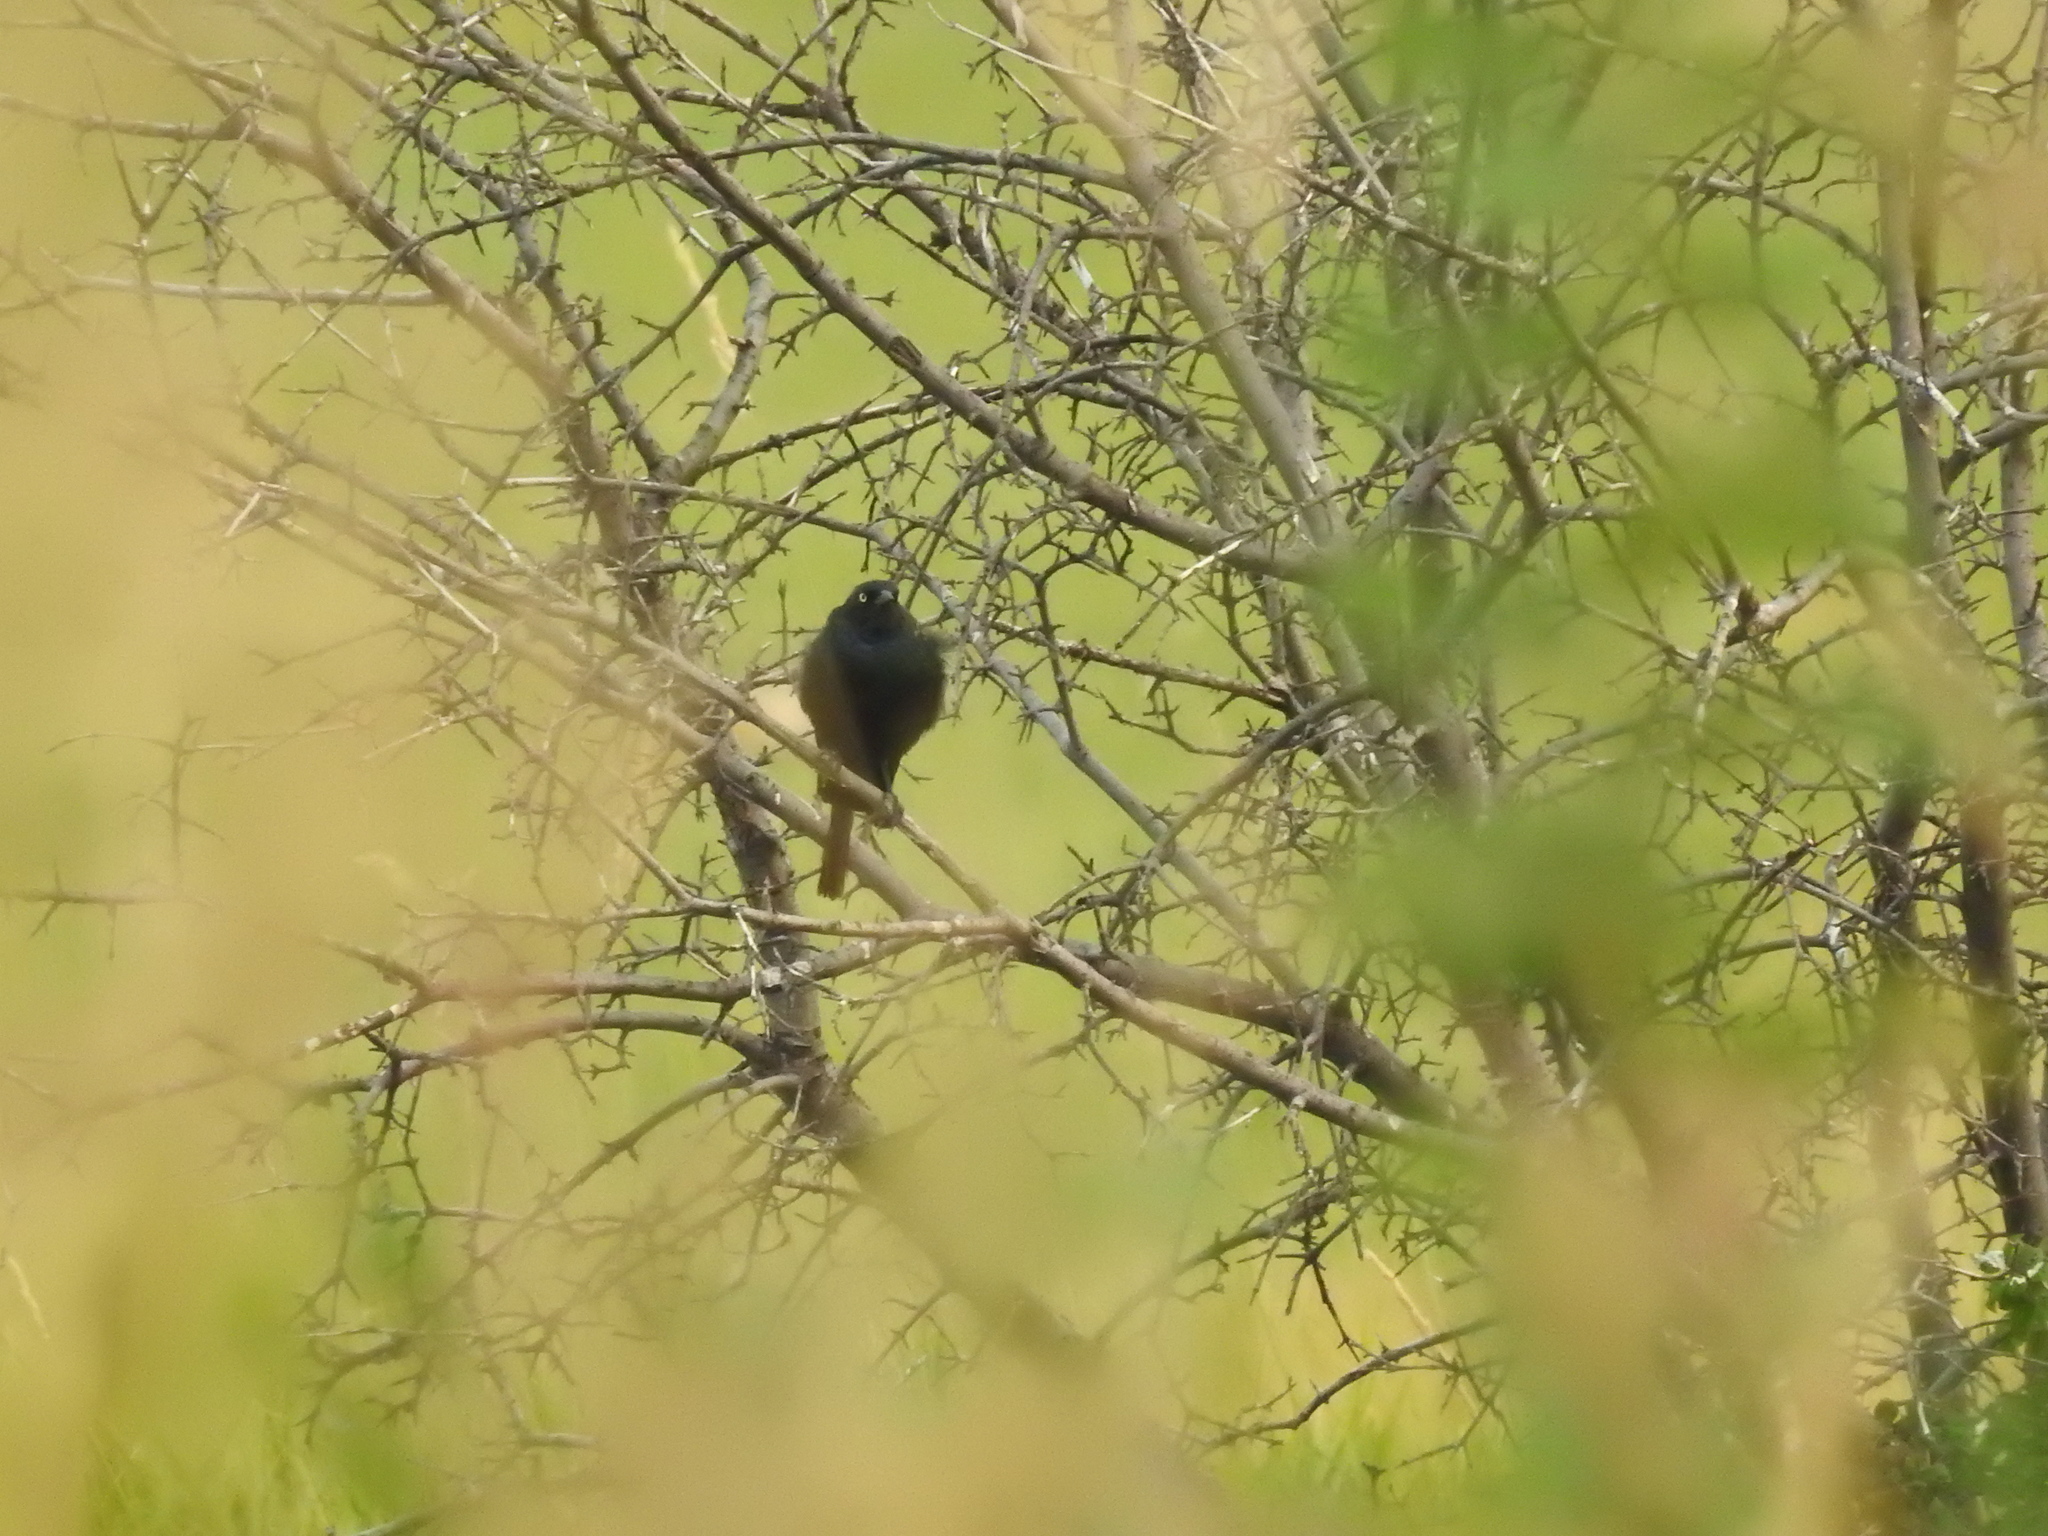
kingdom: Animalia
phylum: Chordata
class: Aves
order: Passeriformes
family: Icteridae
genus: Euphagus
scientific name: Euphagus cyanocephalus
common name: Brewer's blackbird
